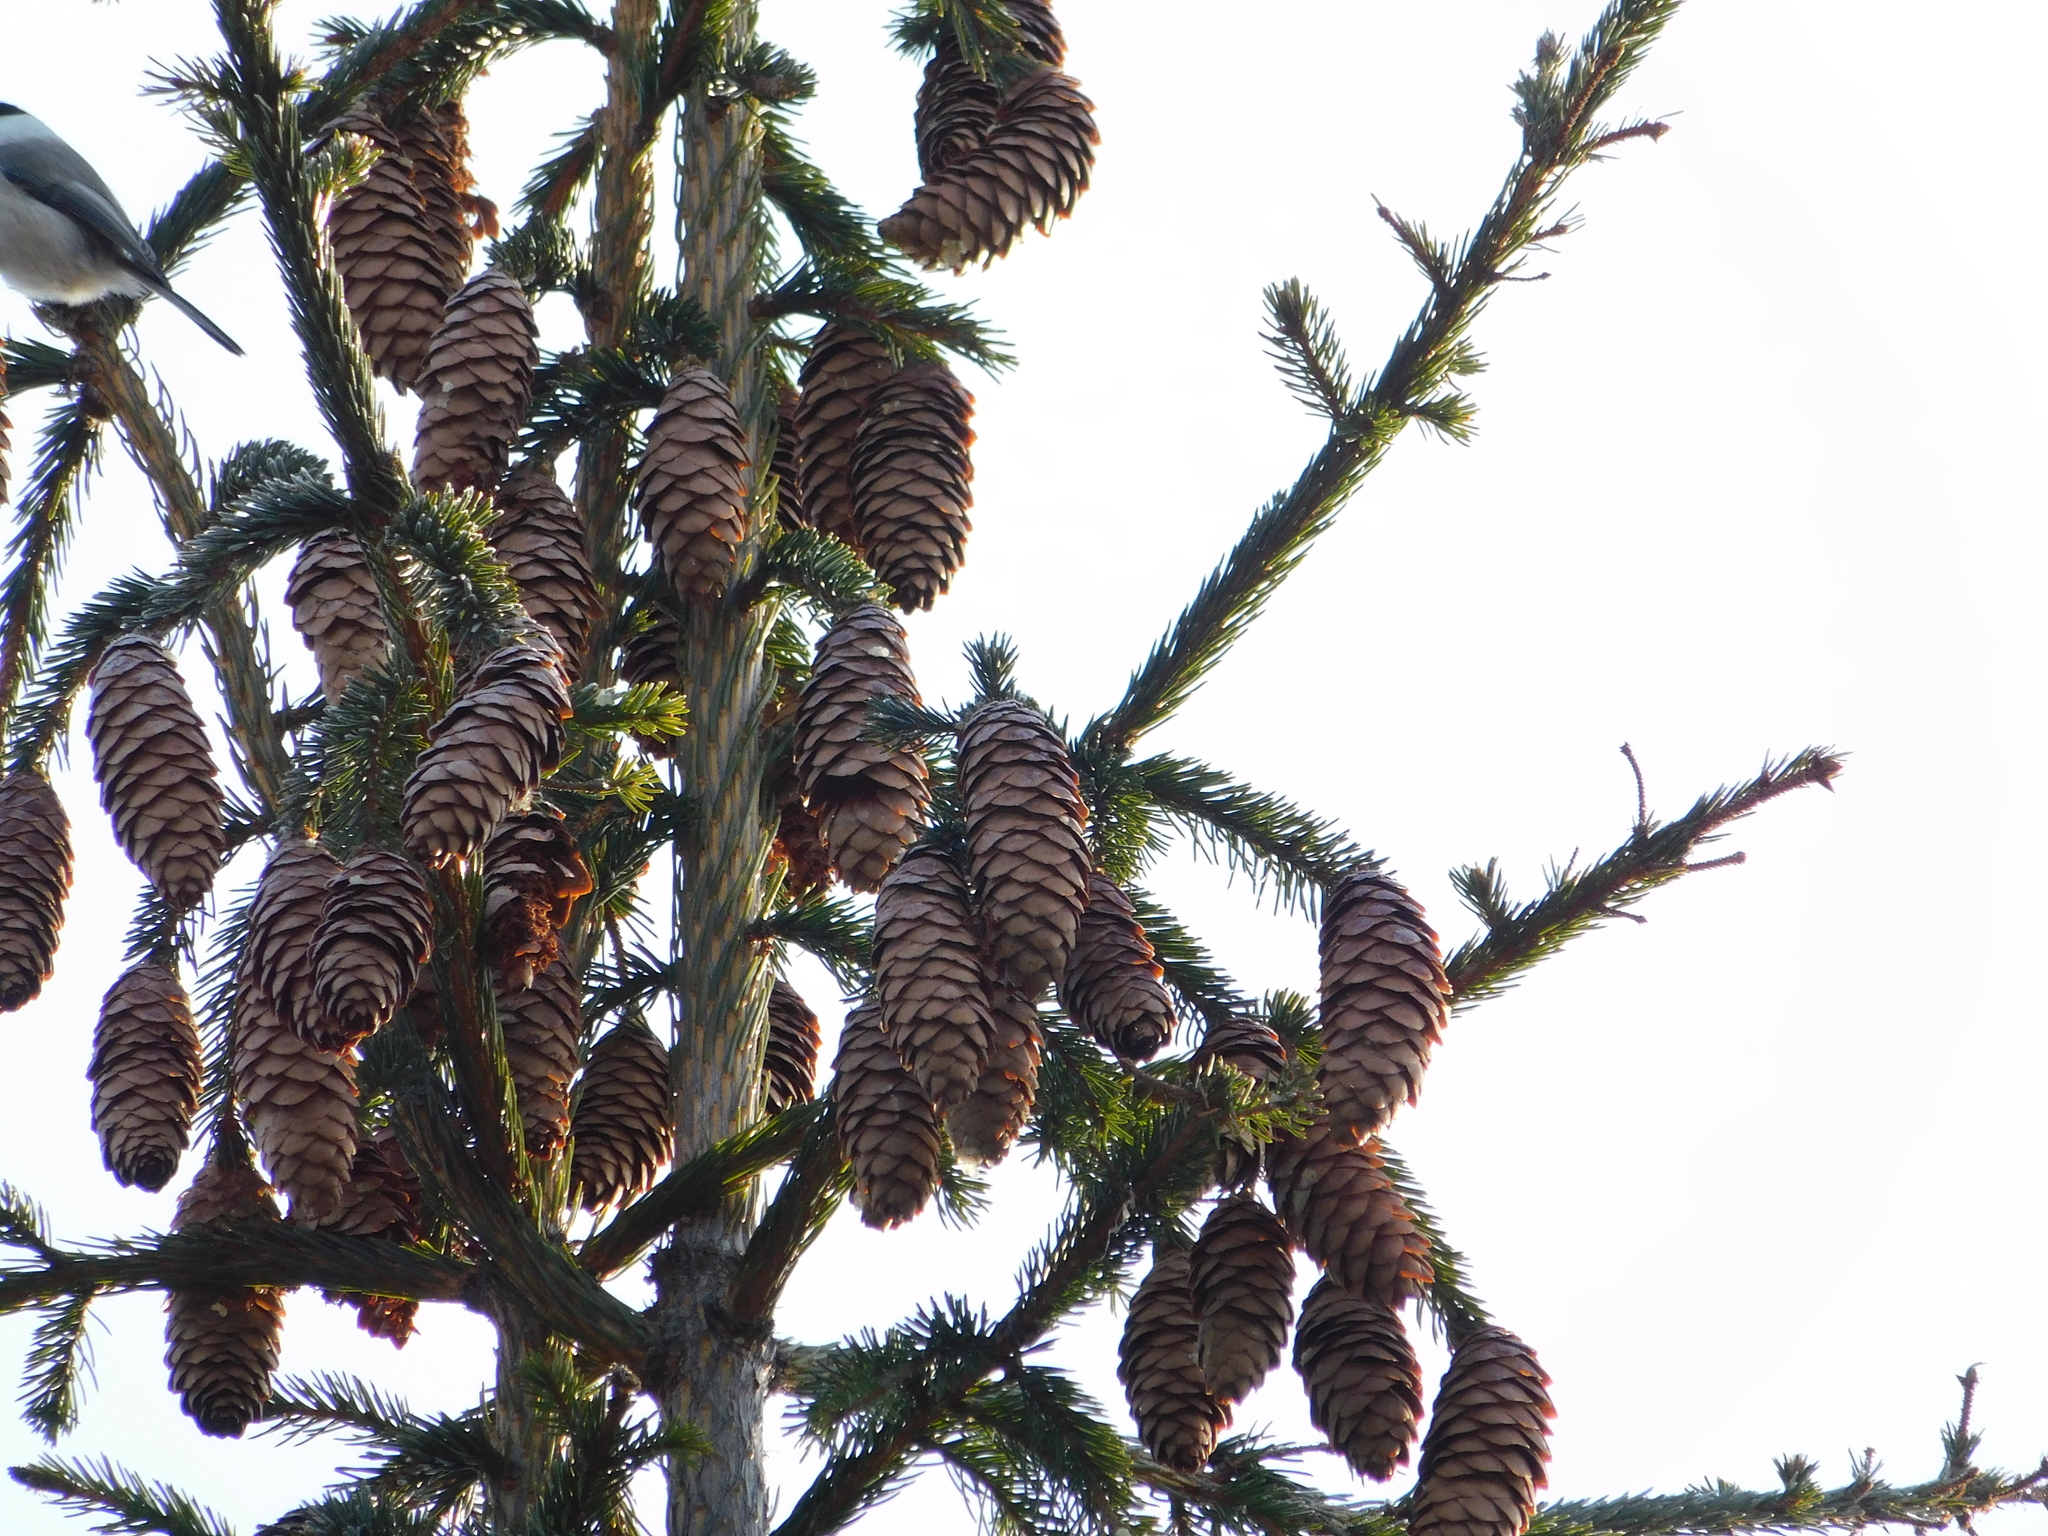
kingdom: Animalia
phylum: Chordata
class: Aves
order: Passeriformes
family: Paridae
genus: Poecile
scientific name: Poecile montanus
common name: Willow tit
